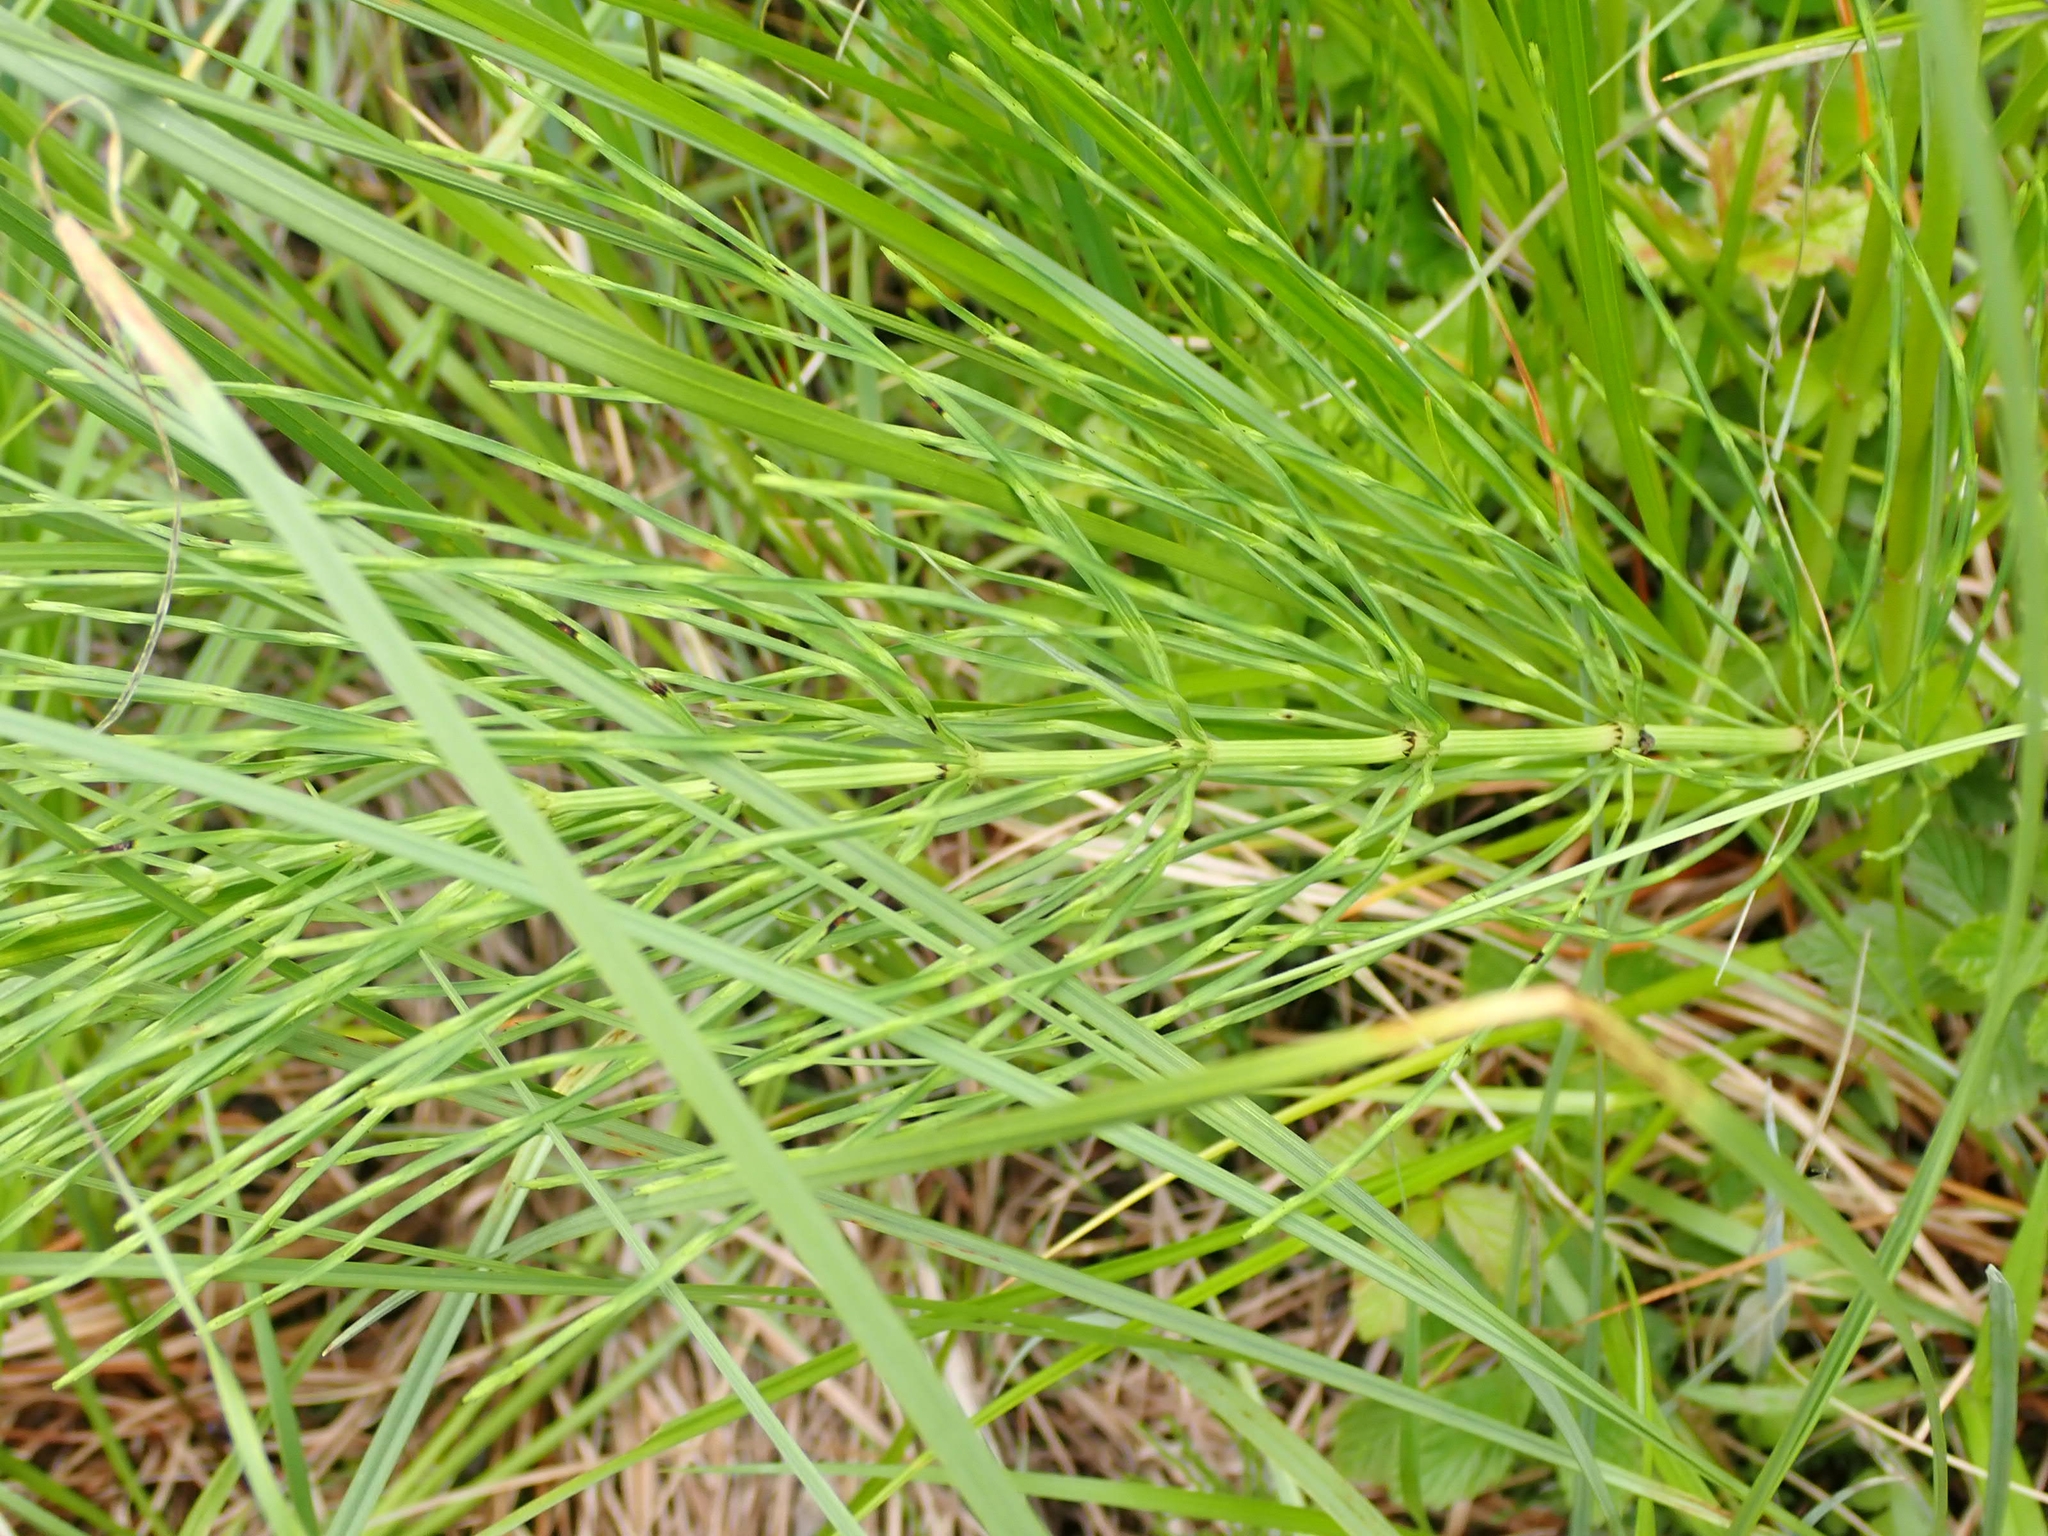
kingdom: Plantae
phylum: Tracheophyta
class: Polypodiopsida
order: Equisetales
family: Equisetaceae
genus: Equisetum
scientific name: Equisetum arvense
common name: Field horsetail
